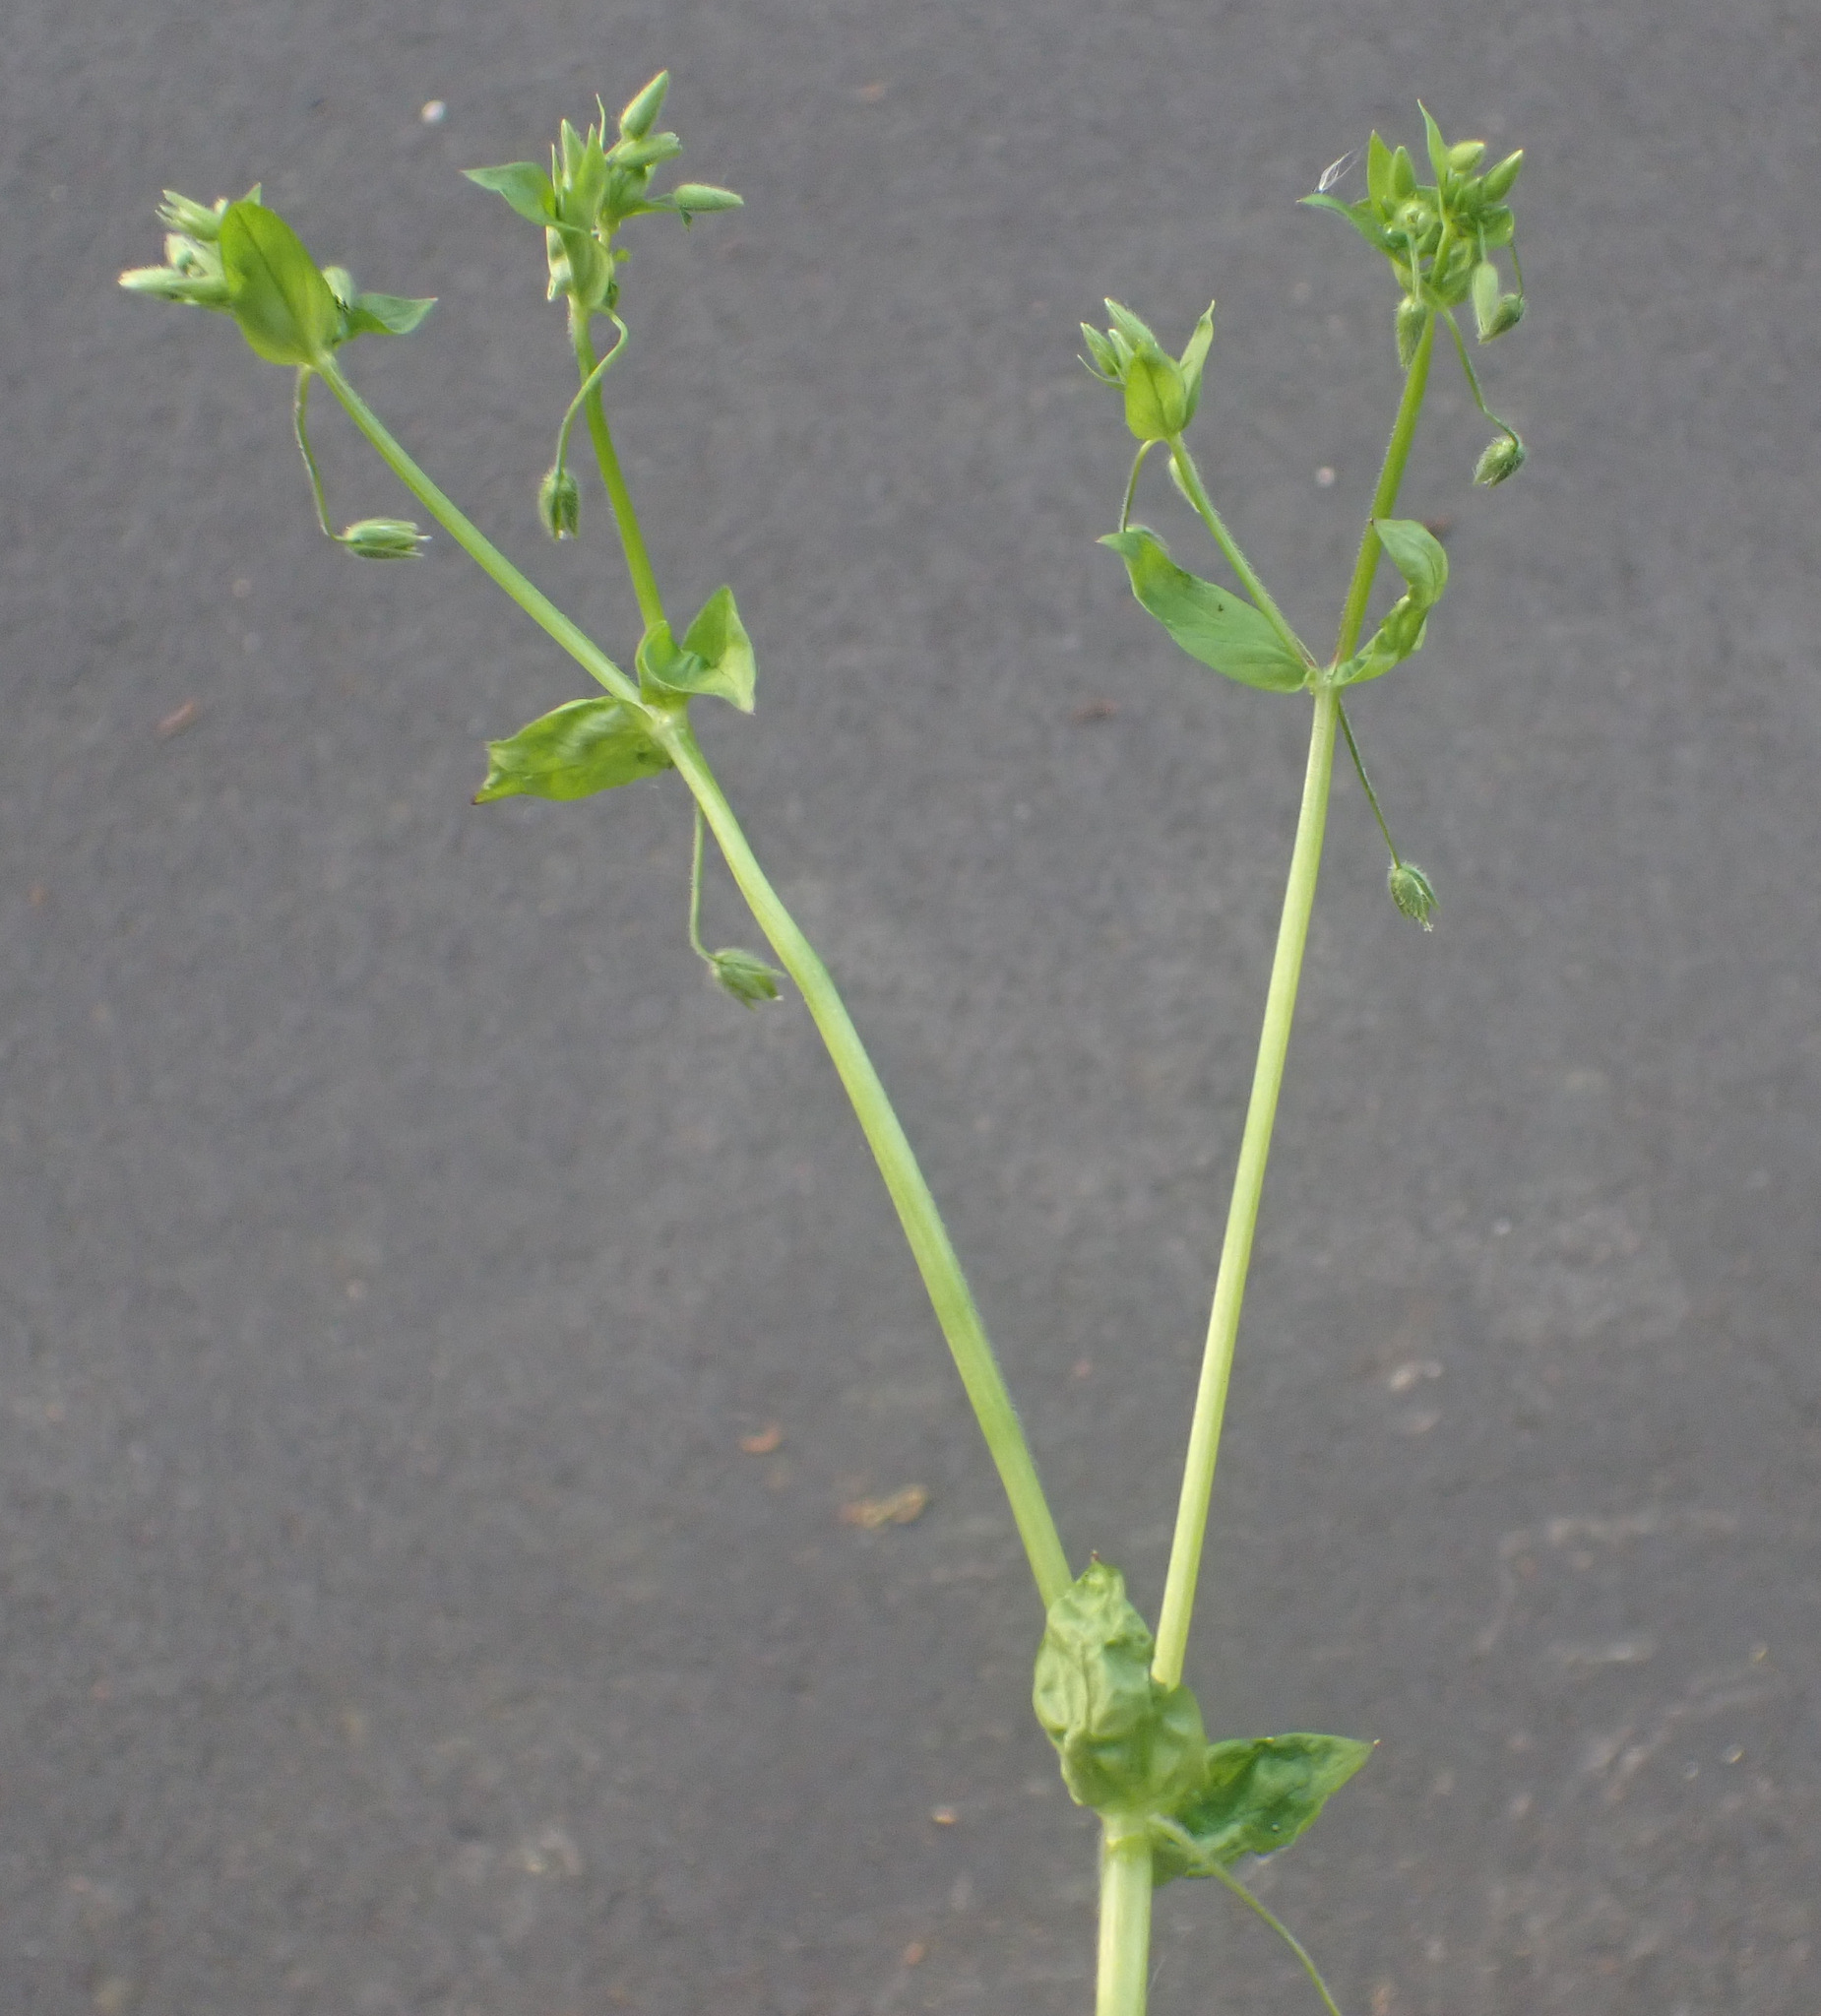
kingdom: Plantae
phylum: Tracheophyta
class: Magnoliopsida
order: Caryophyllales
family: Caryophyllaceae
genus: Stellaria
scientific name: Stellaria ruderalis
